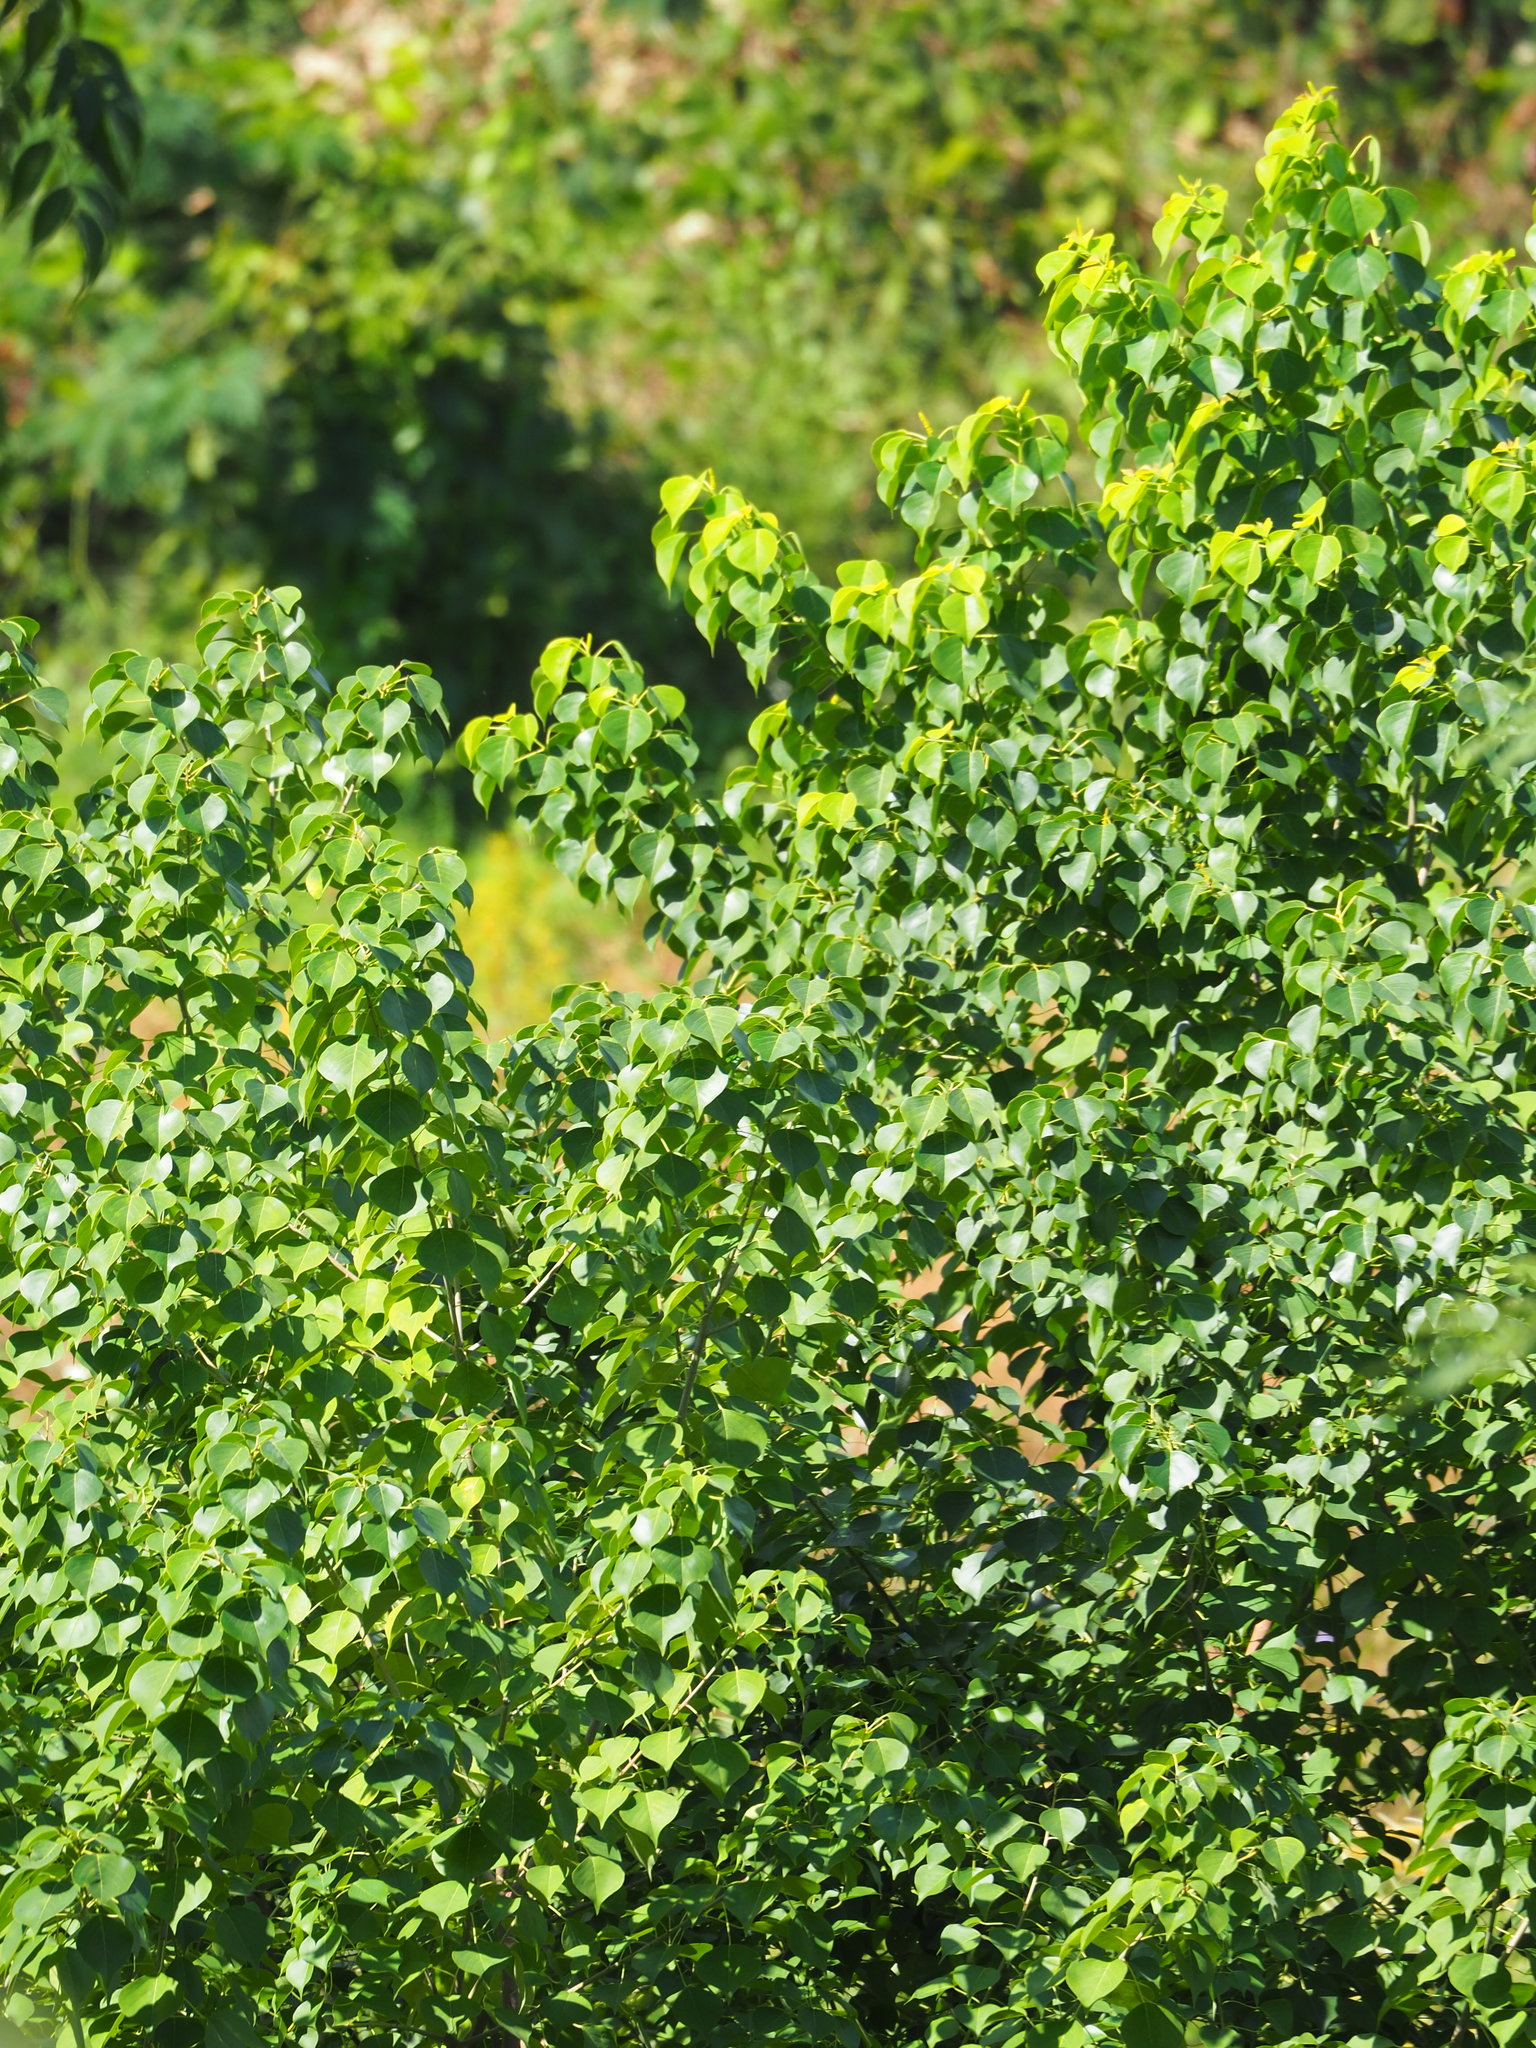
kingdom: Plantae
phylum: Tracheophyta
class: Magnoliopsida
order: Malpighiales
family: Euphorbiaceae
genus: Triadica
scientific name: Triadica sebifera
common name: Chinese tallow
